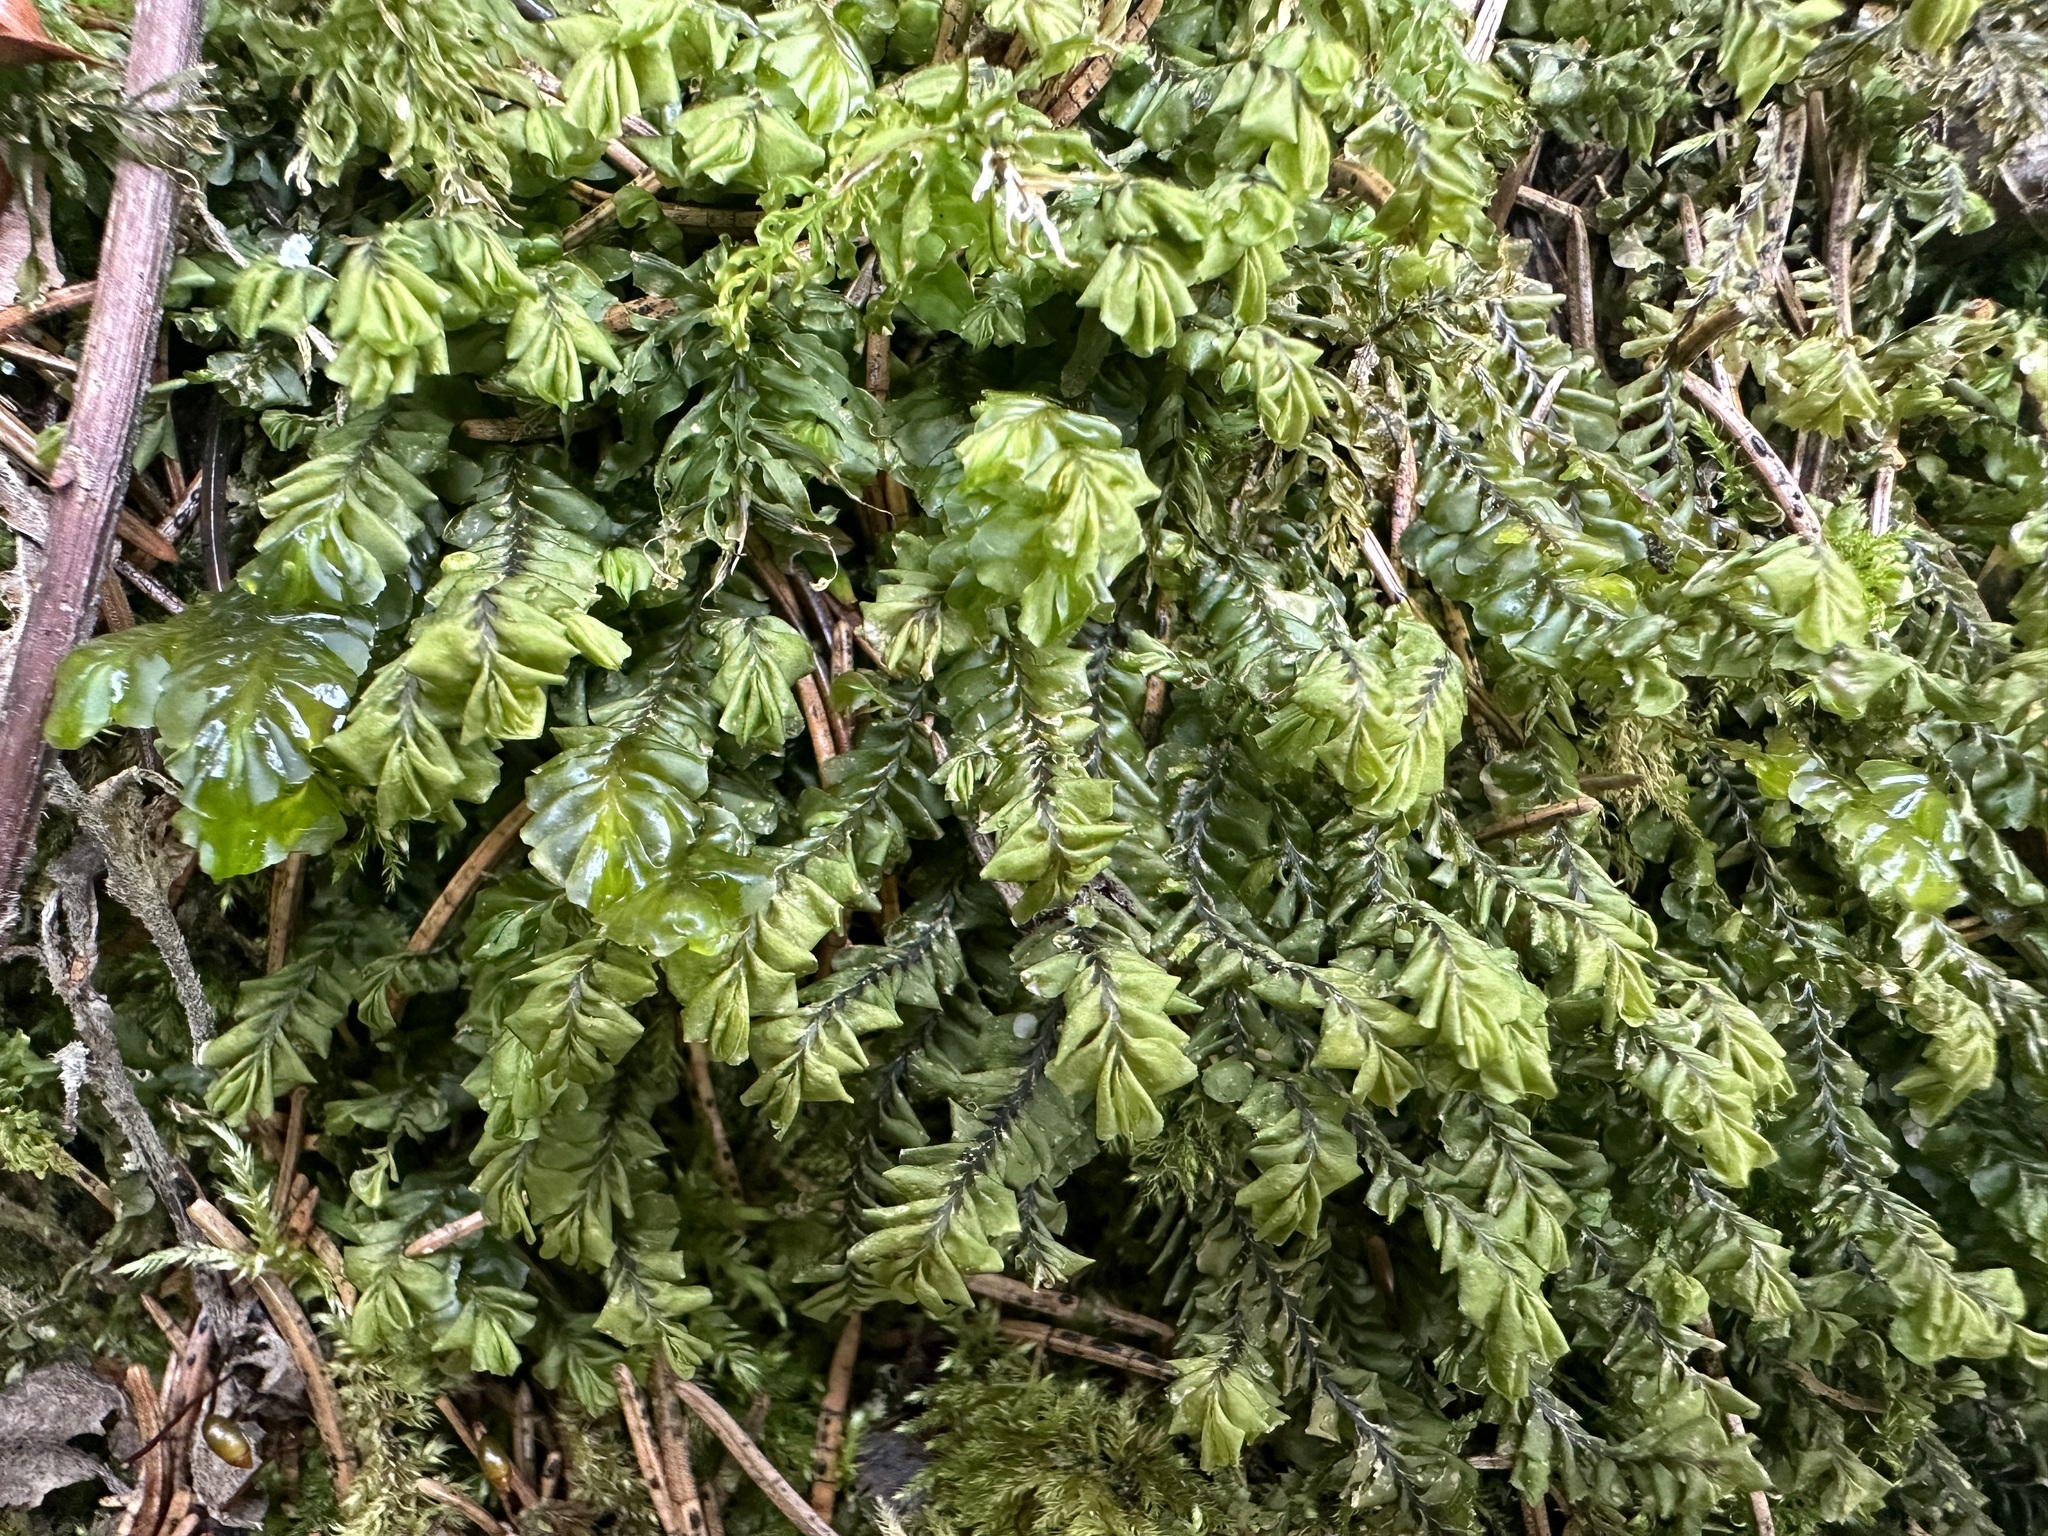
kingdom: Plantae
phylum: Marchantiophyta
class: Jungermanniopsida
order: Jungermanniales
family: Plagiochilaceae
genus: Plagiochila
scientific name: Plagiochila porelloides
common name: Lesser featherwort
